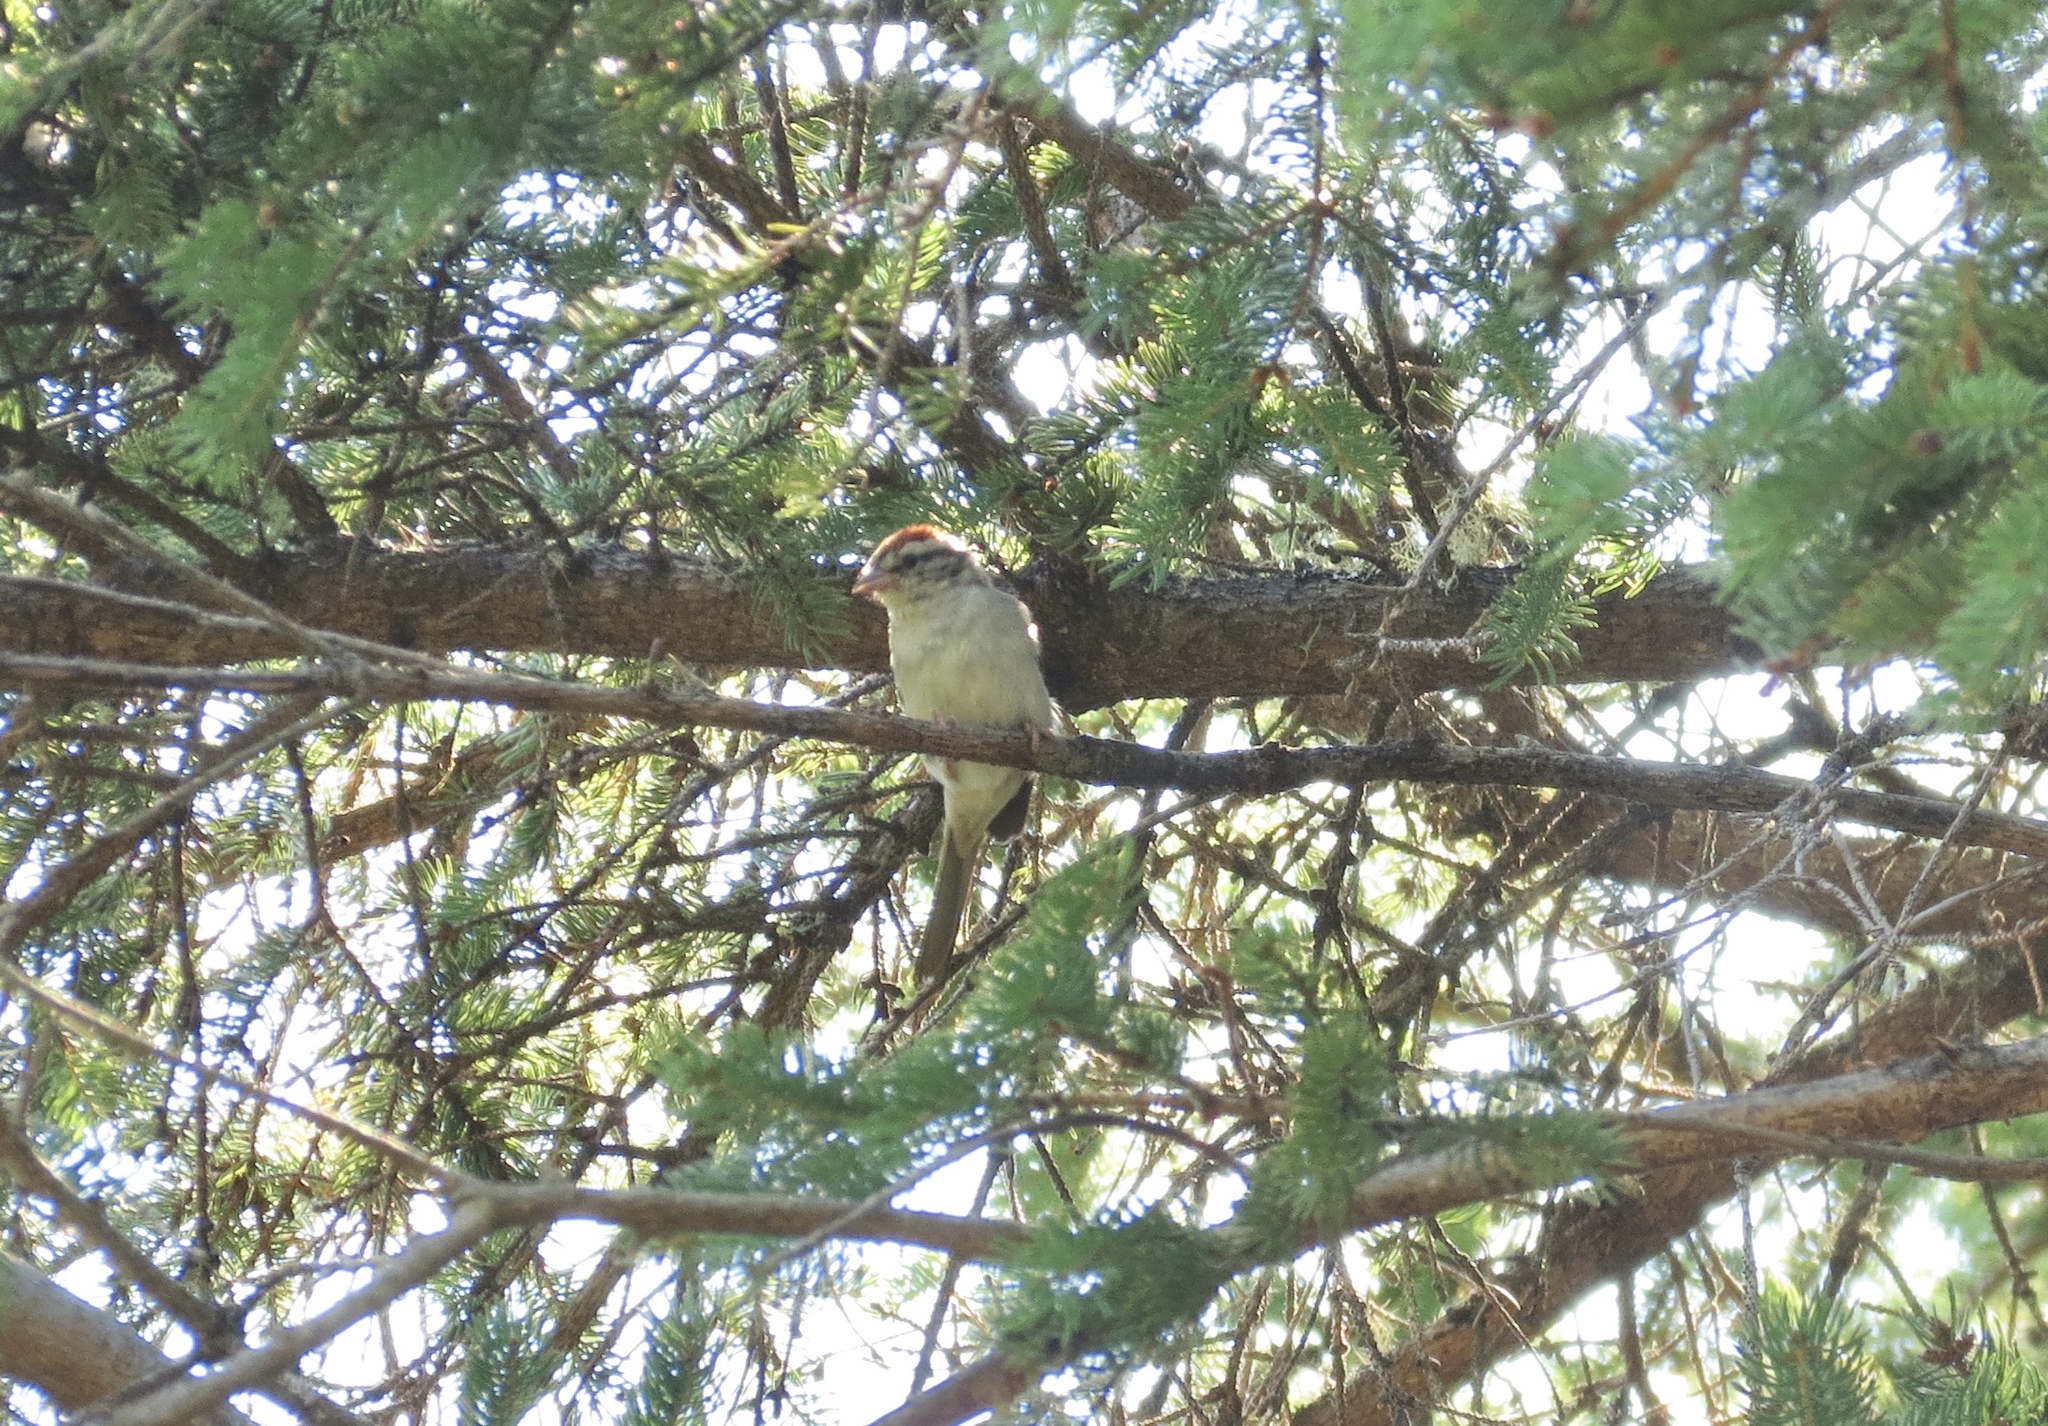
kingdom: Animalia
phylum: Chordata
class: Aves
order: Passeriformes
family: Passerellidae
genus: Spizella
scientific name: Spizella passerina
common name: Chipping sparrow
